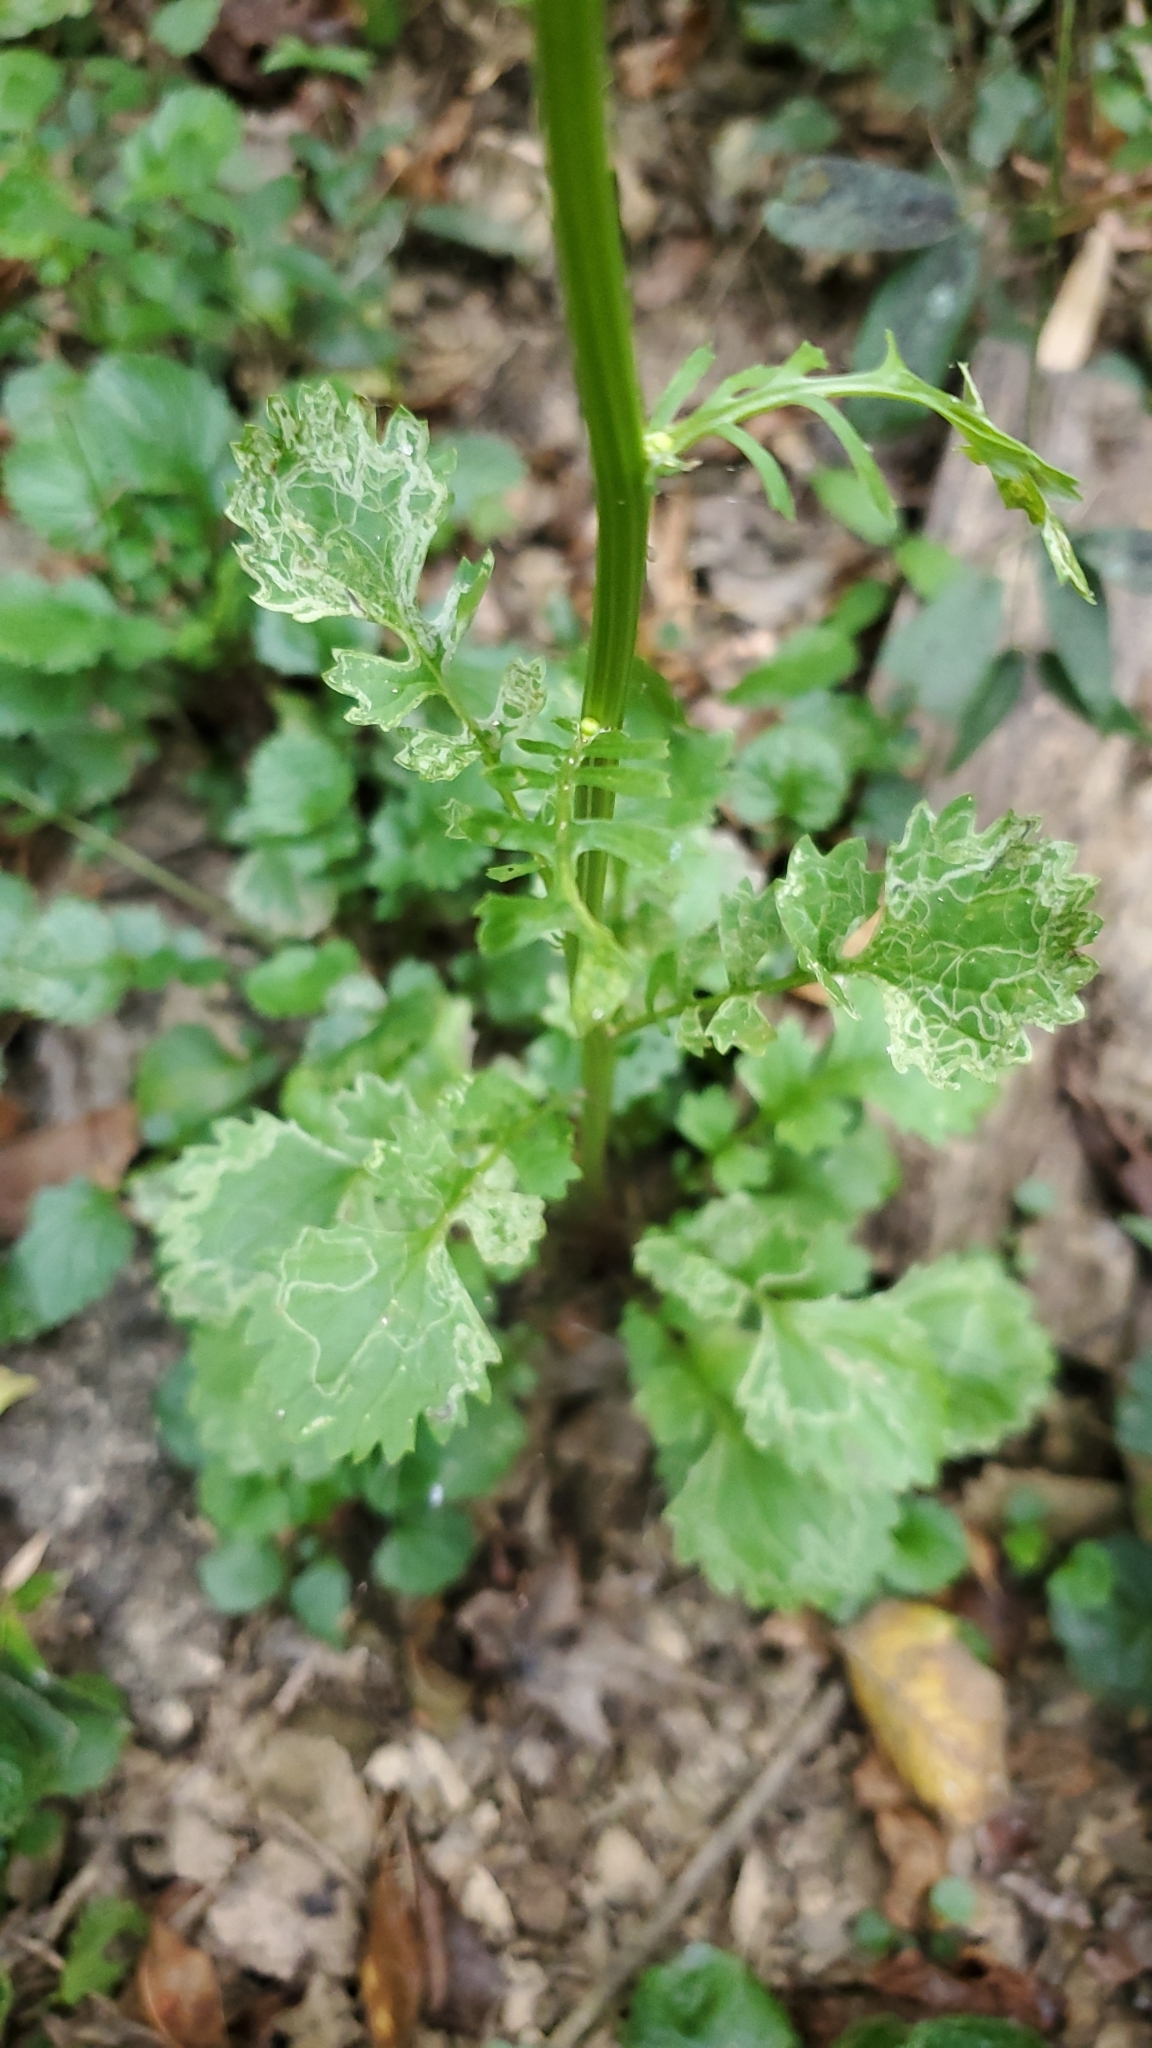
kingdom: Plantae
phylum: Tracheophyta
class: Magnoliopsida
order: Asterales
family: Asteraceae
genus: Packera
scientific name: Packera glabella
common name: Butterweed
